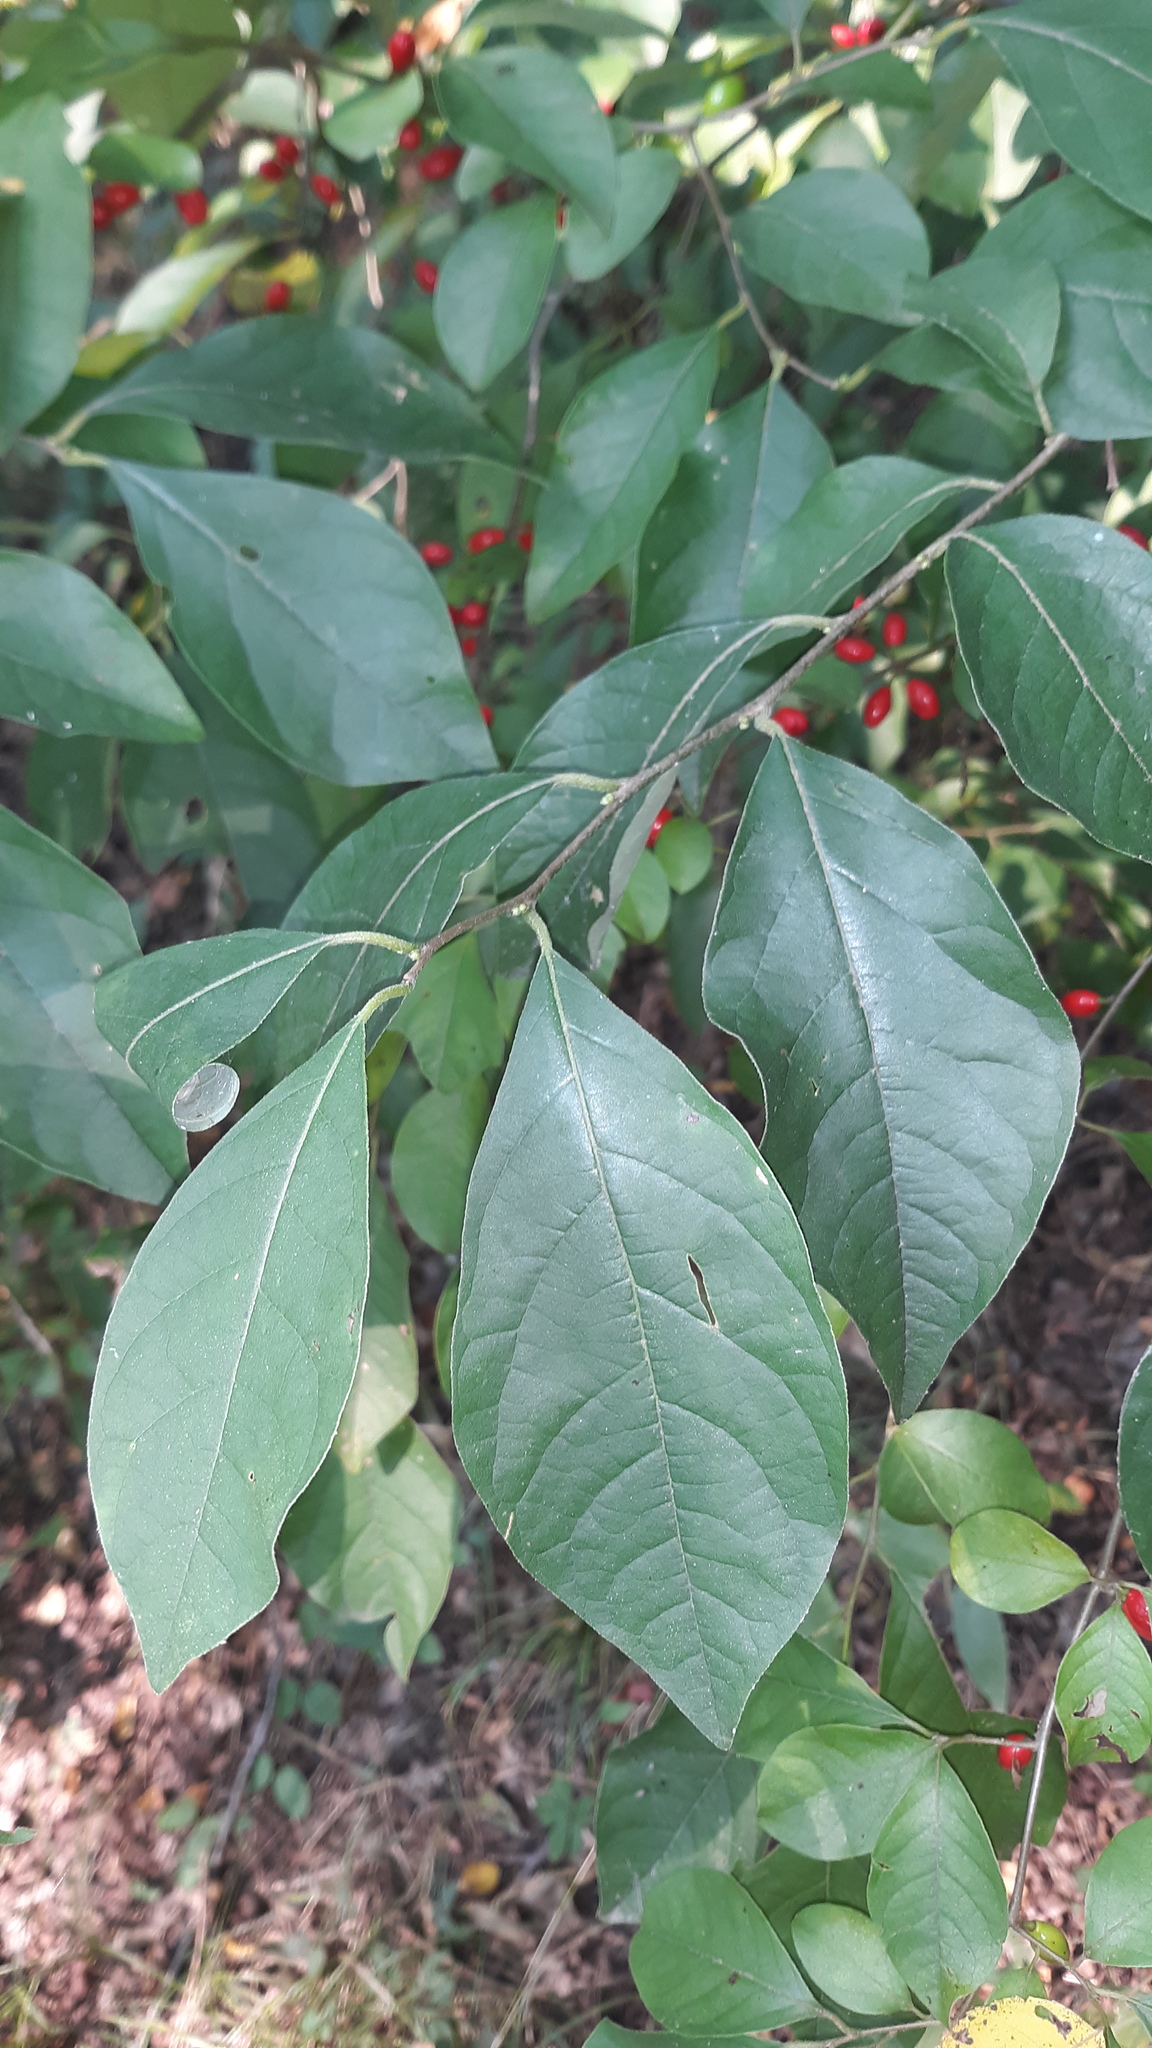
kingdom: Plantae
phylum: Tracheophyta
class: Magnoliopsida
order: Laurales
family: Lauraceae
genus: Lindera
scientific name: Lindera benzoin
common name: Spicebush
